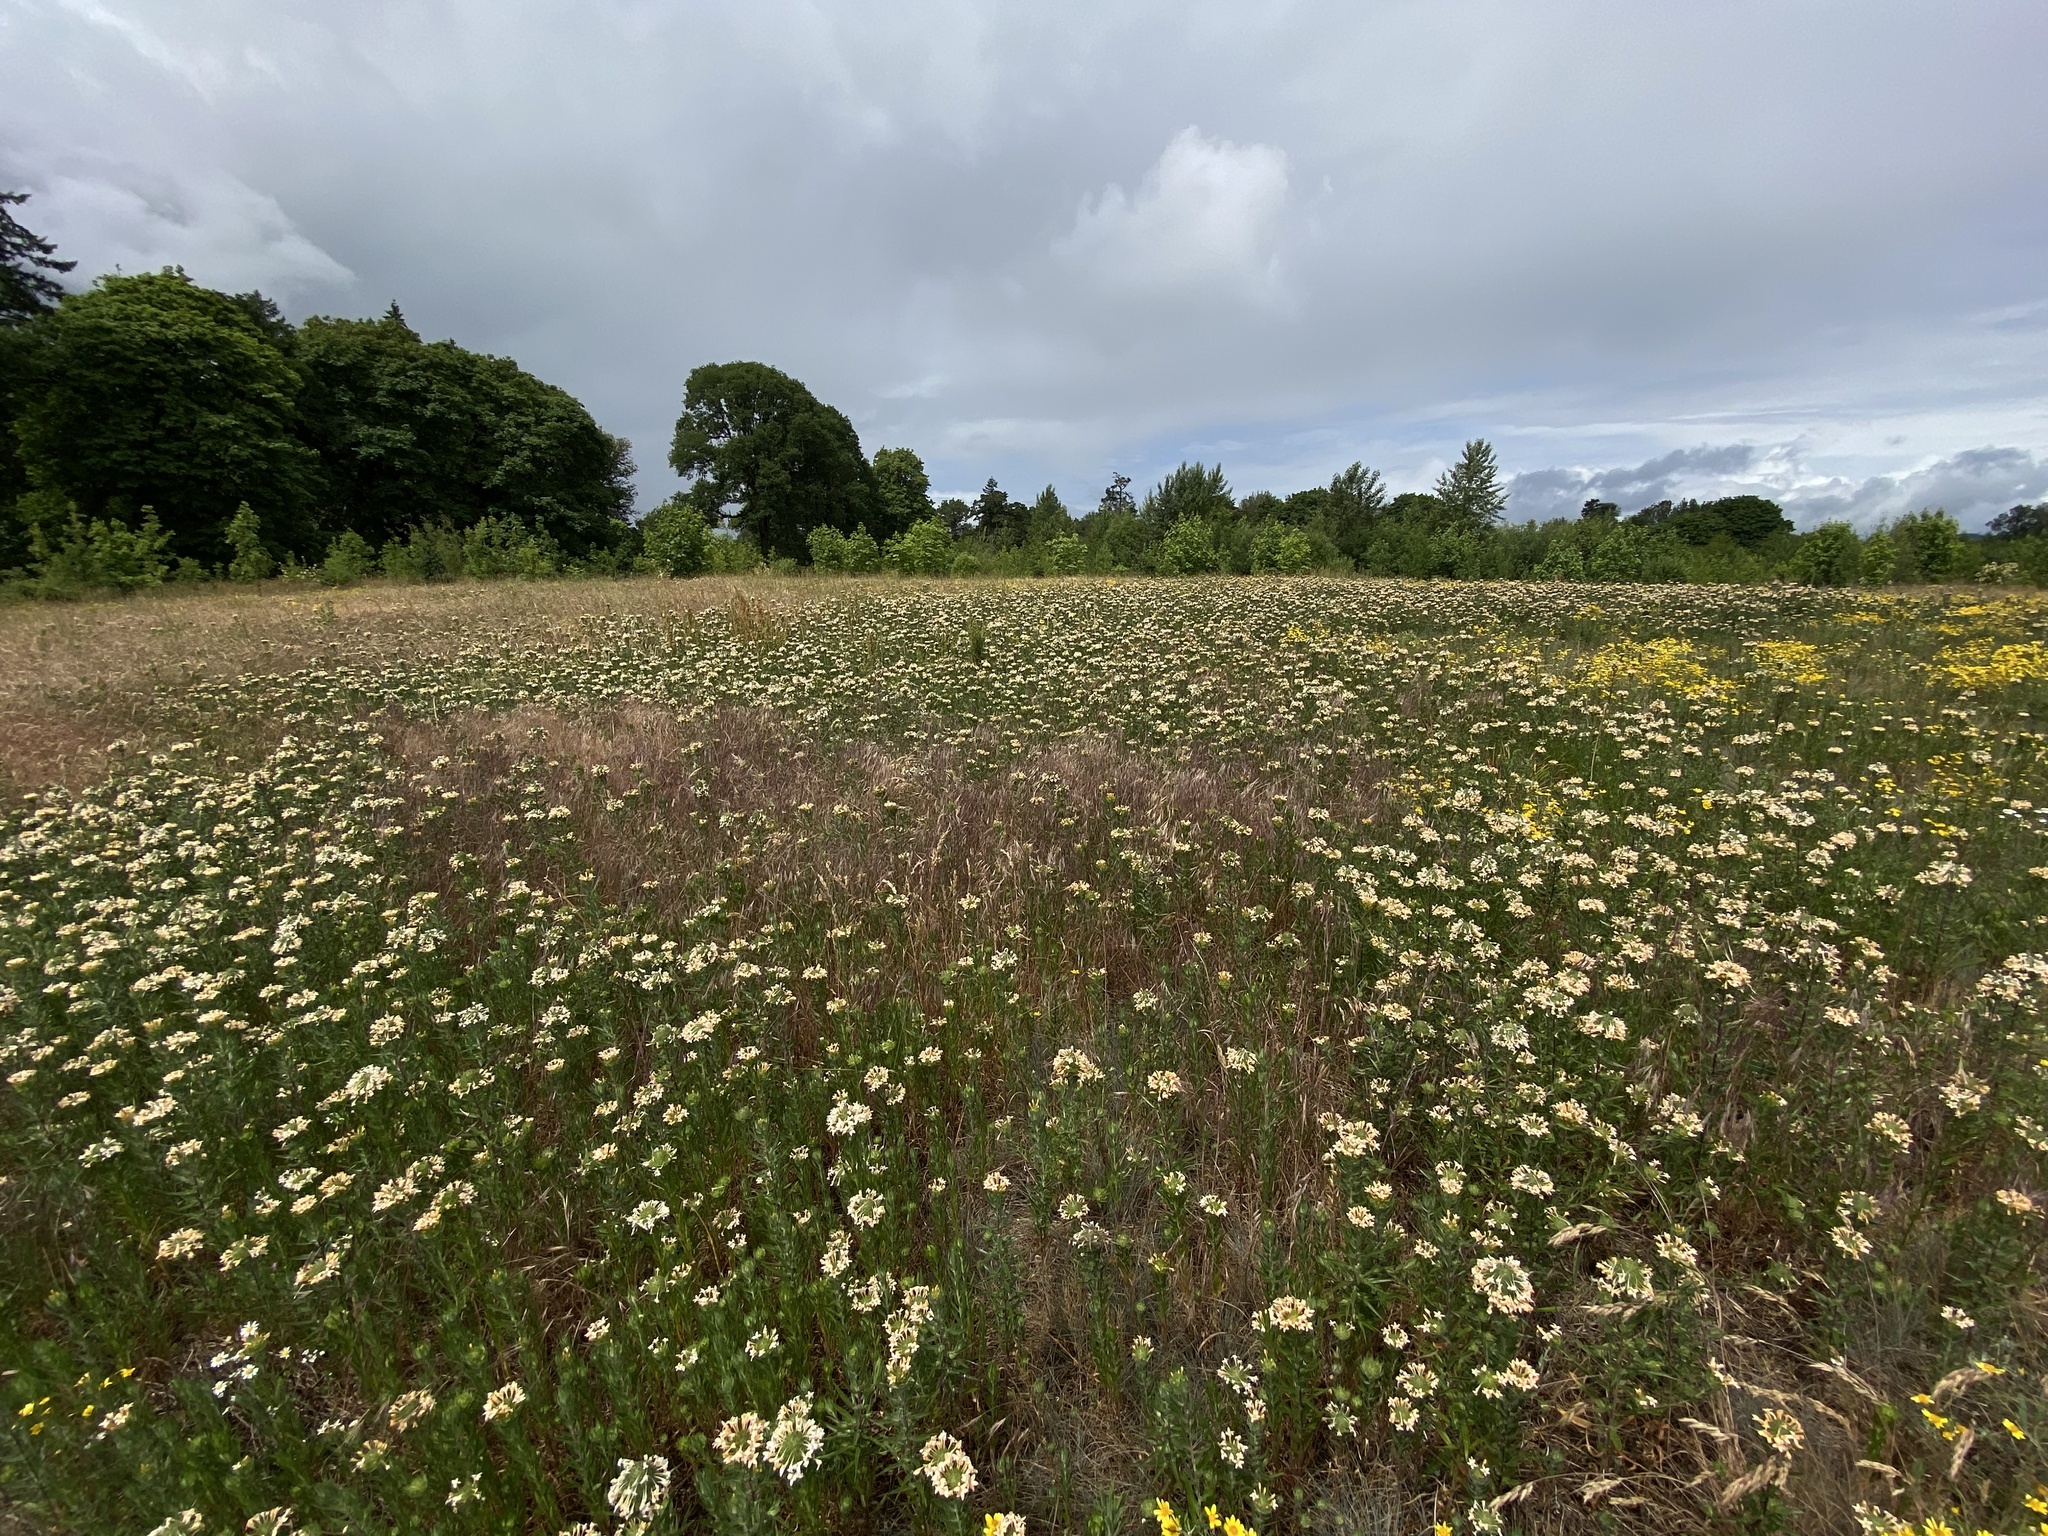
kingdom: Plantae
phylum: Tracheophyta
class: Magnoliopsida
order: Ericales
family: Polemoniaceae
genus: Collomia
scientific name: Collomia grandiflora
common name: California strawflower
